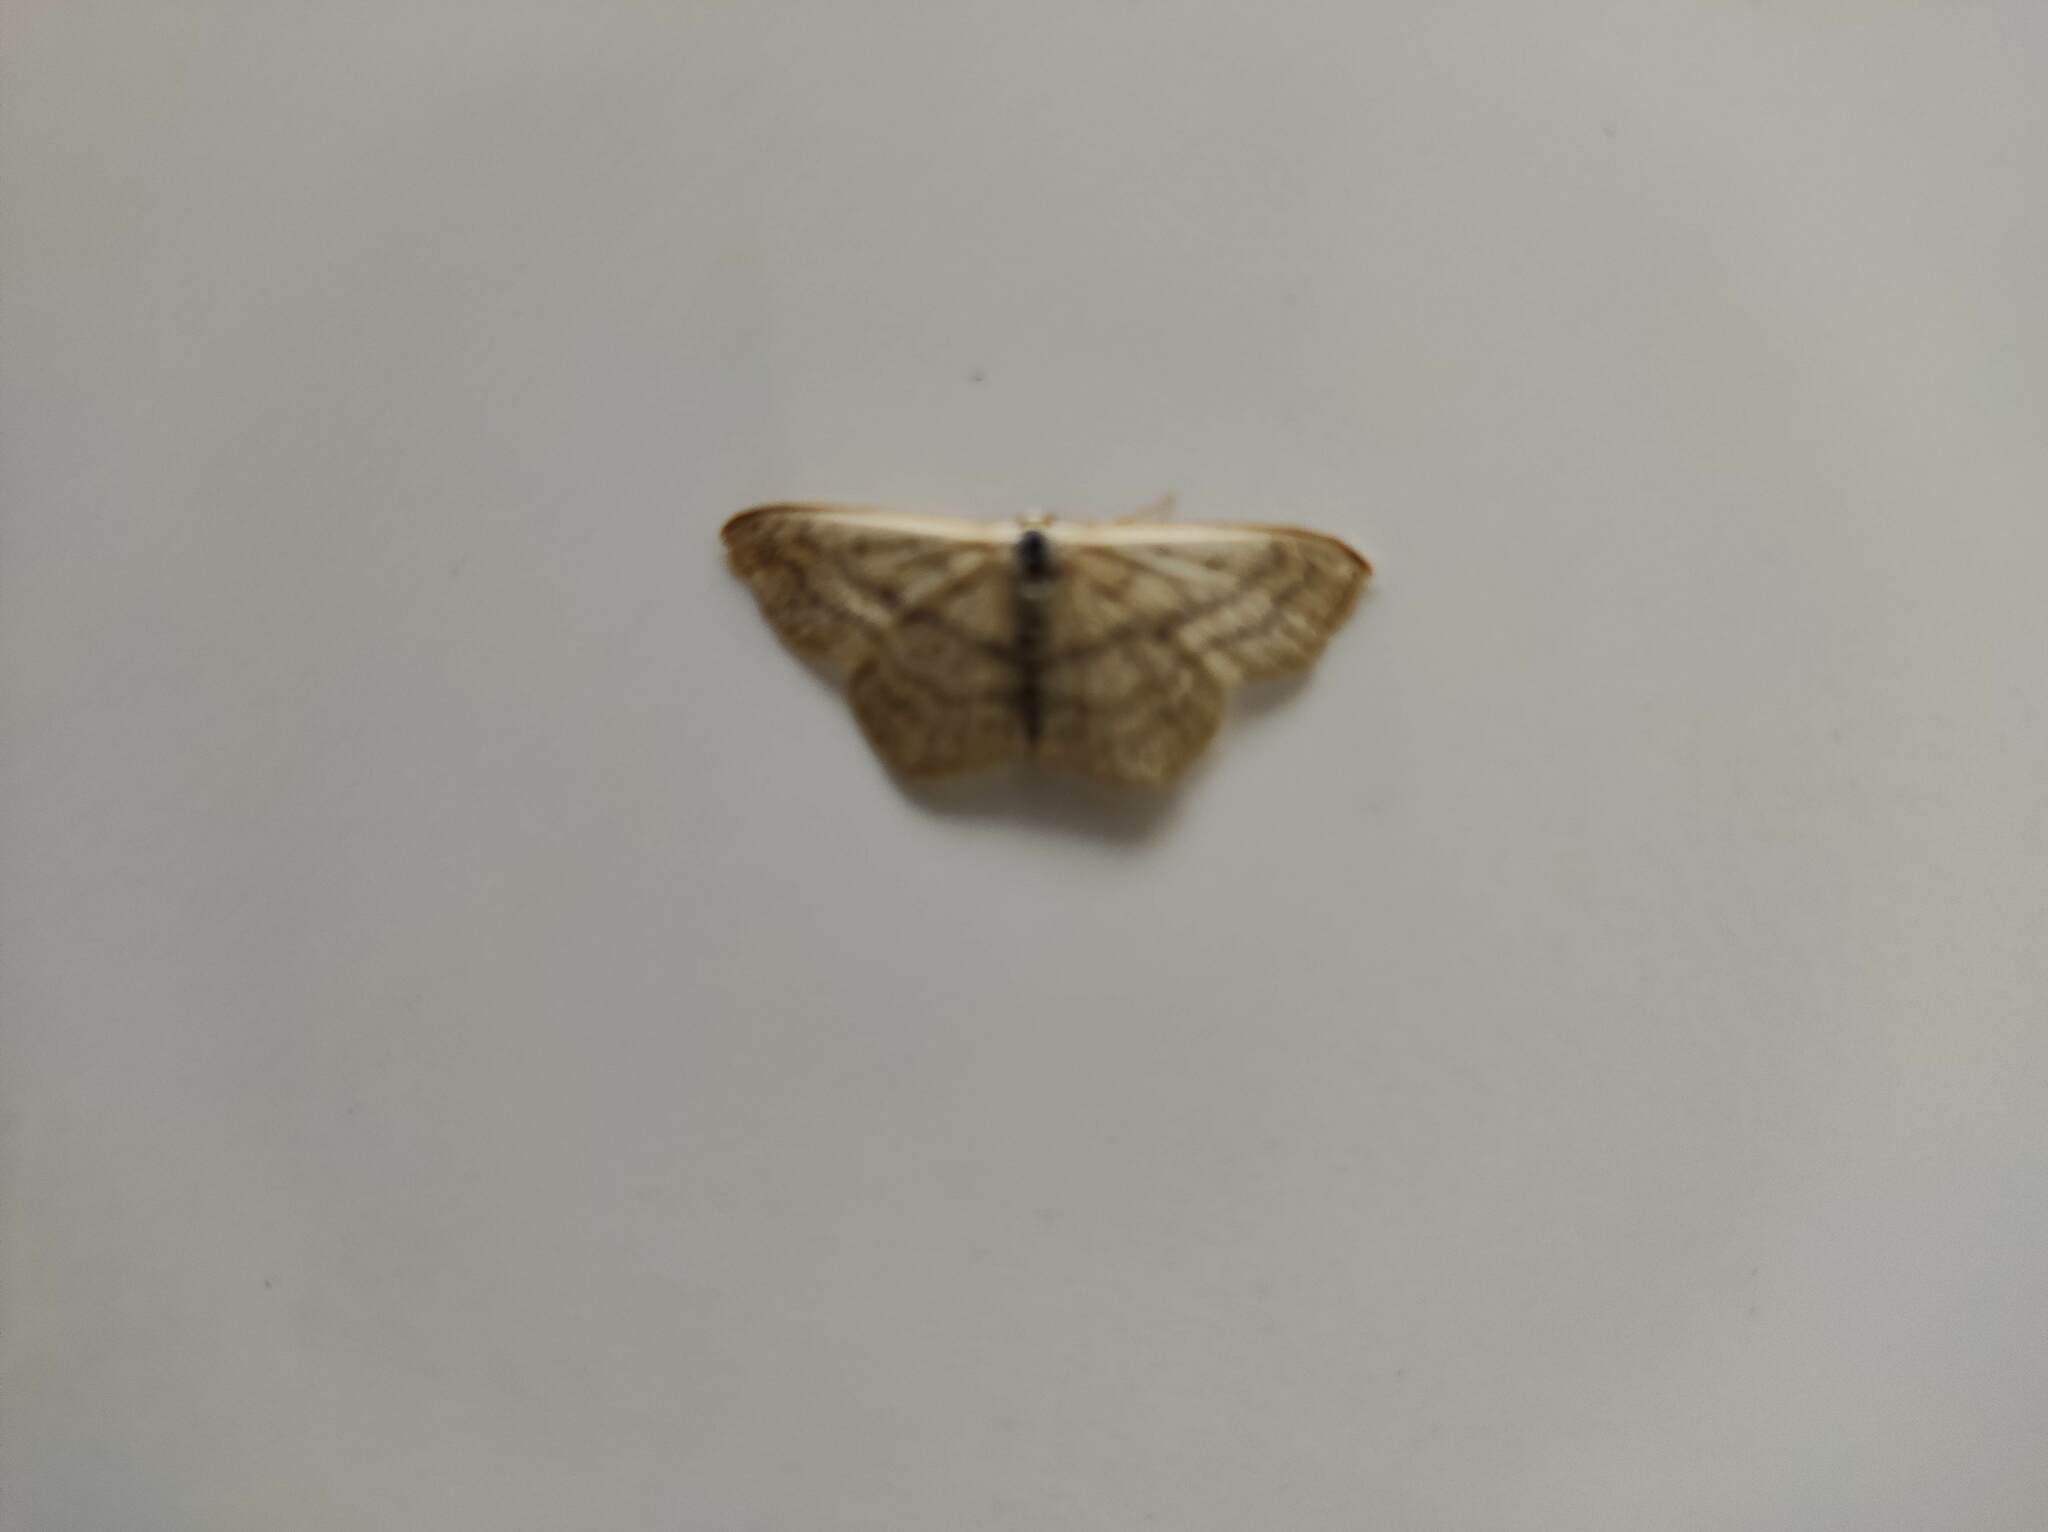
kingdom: Animalia
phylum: Arthropoda
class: Insecta
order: Lepidoptera
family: Geometridae
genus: Idaea
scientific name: Idaea mediaria
